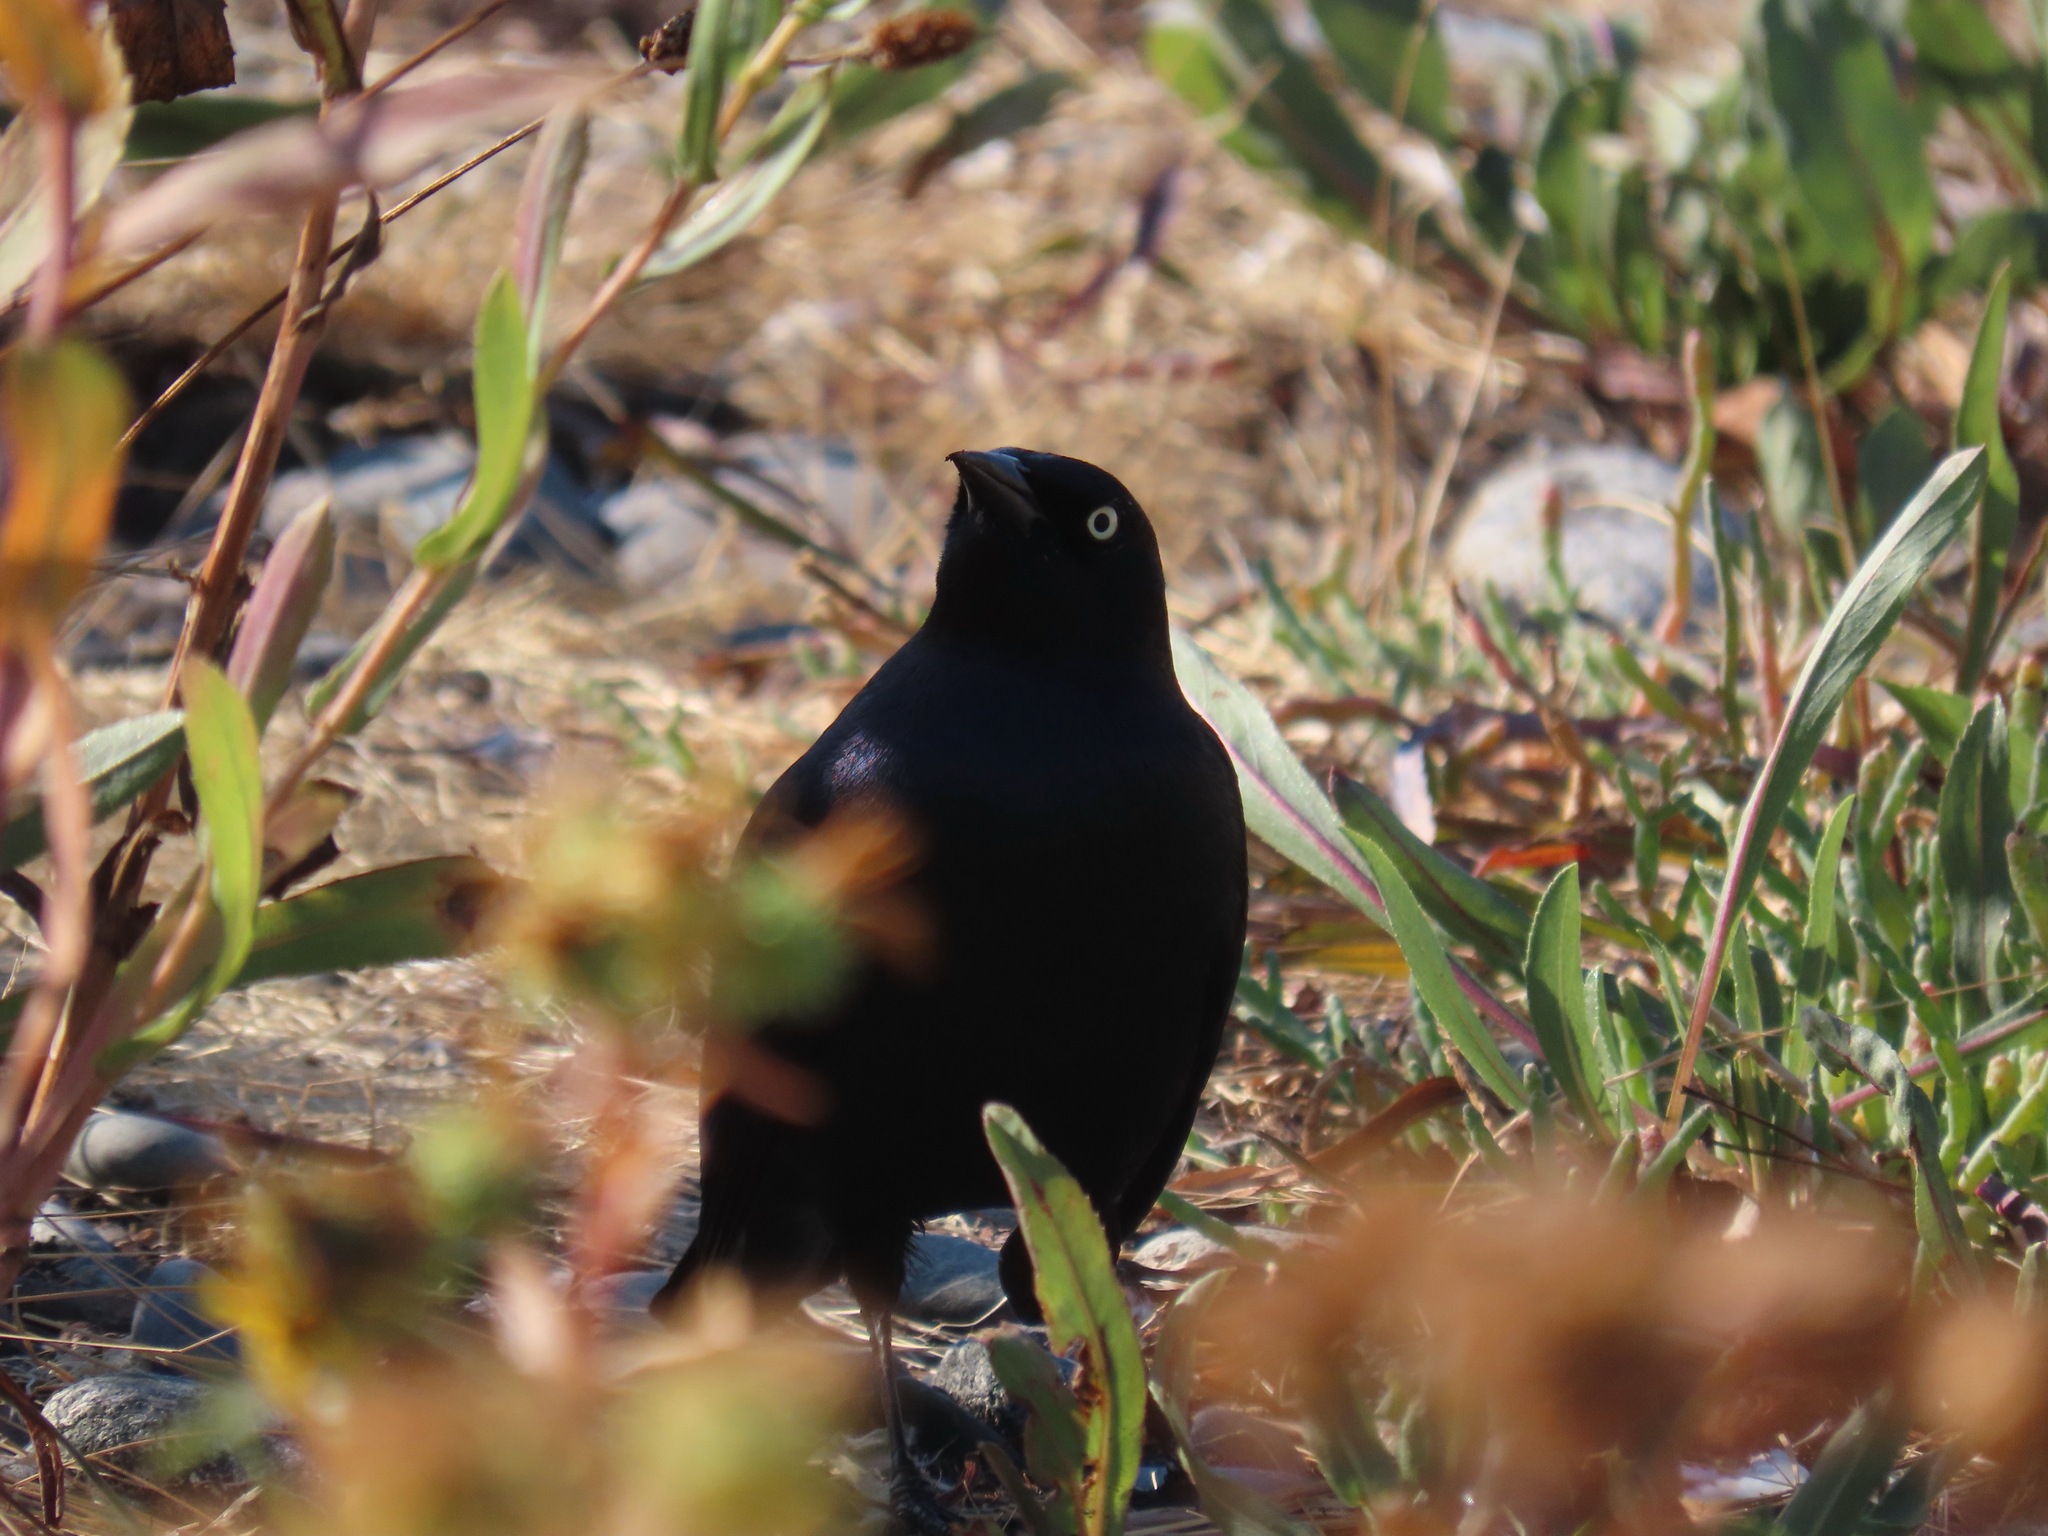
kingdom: Animalia
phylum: Chordata
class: Aves
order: Passeriformes
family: Icteridae
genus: Euphagus
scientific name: Euphagus cyanocephalus
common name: Brewer's blackbird
